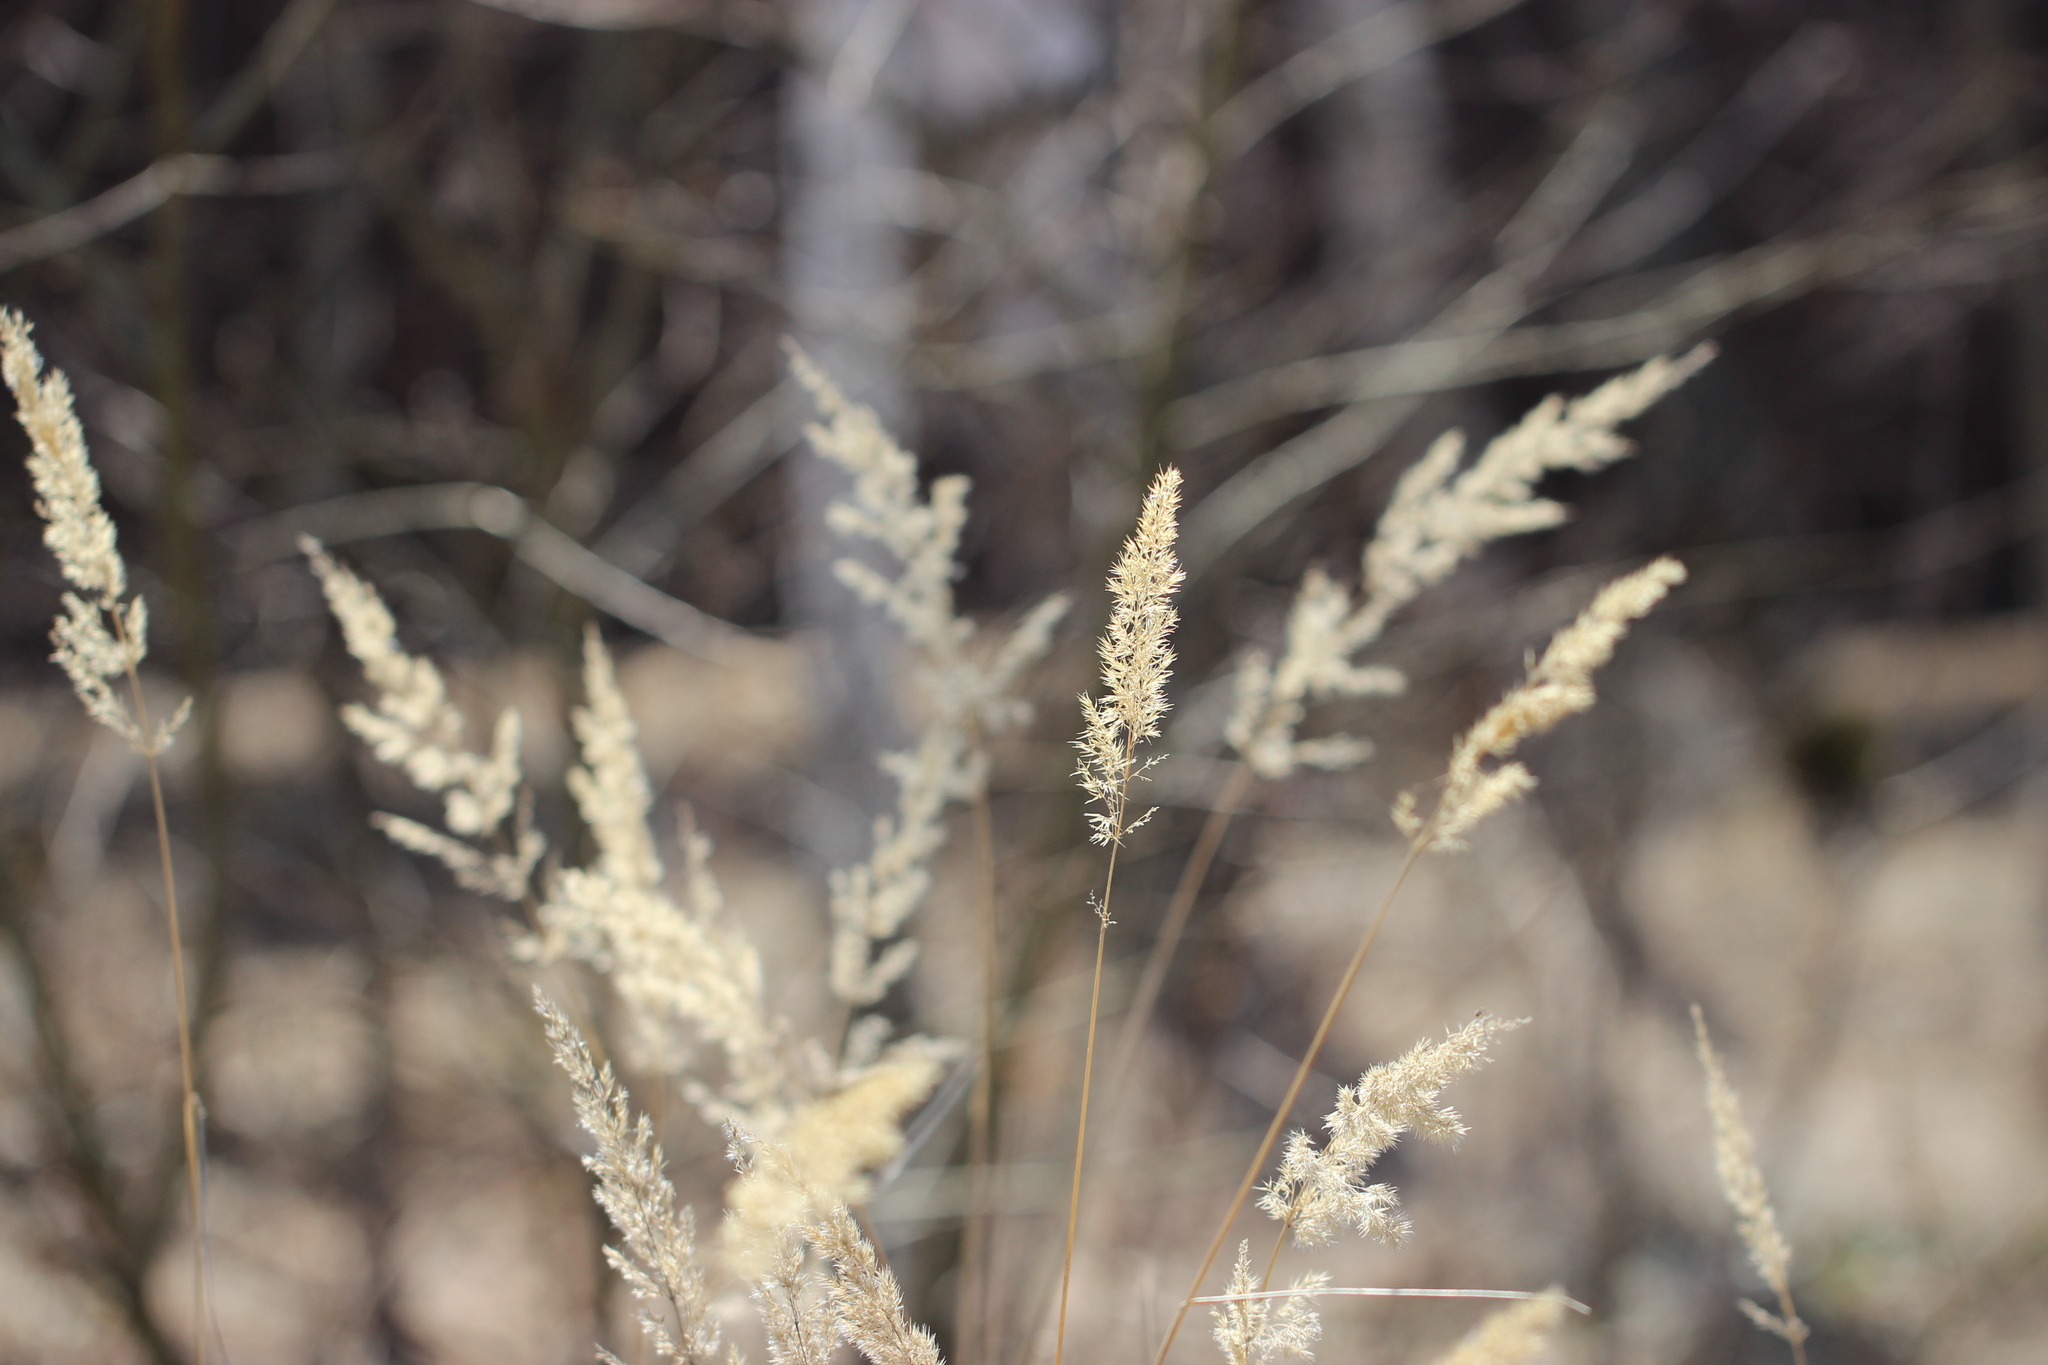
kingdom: Plantae
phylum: Tracheophyta
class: Liliopsida
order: Poales
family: Poaceae
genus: Calamagrostis
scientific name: Calamagrostis epigejos
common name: Wood small-reed
